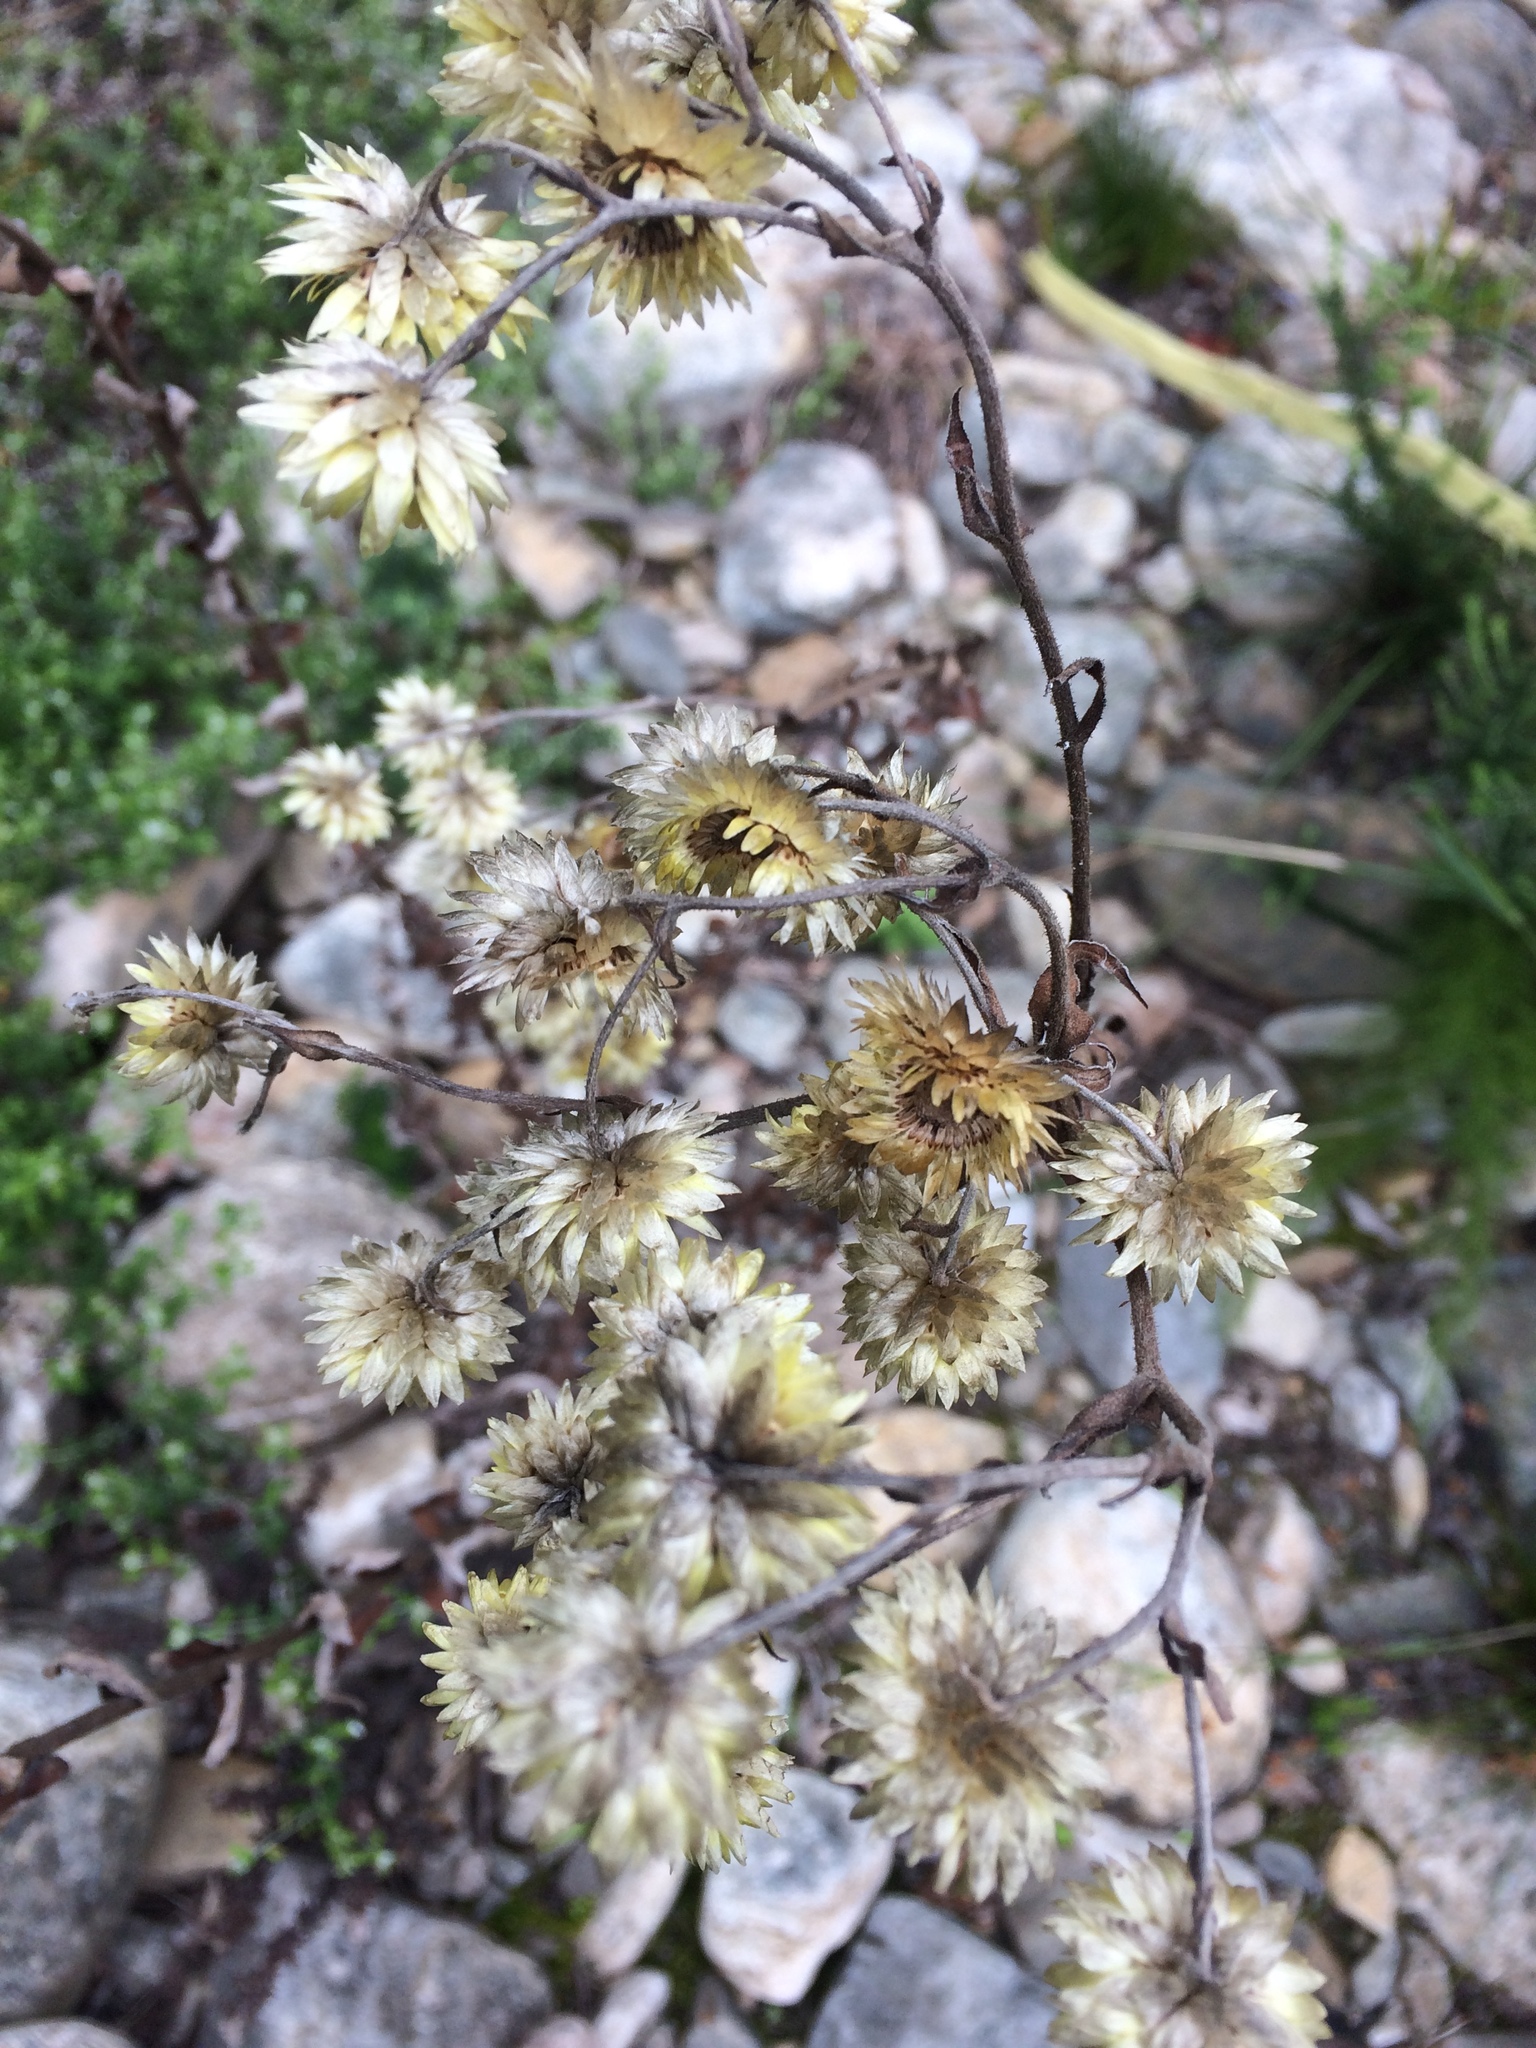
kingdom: Plantae
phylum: Tracheophyta
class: Magnoliopsida
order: Asterales
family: Asteraceae
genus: Helichrysum
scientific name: Helichrysum foetidum
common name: Stinking everlasting
